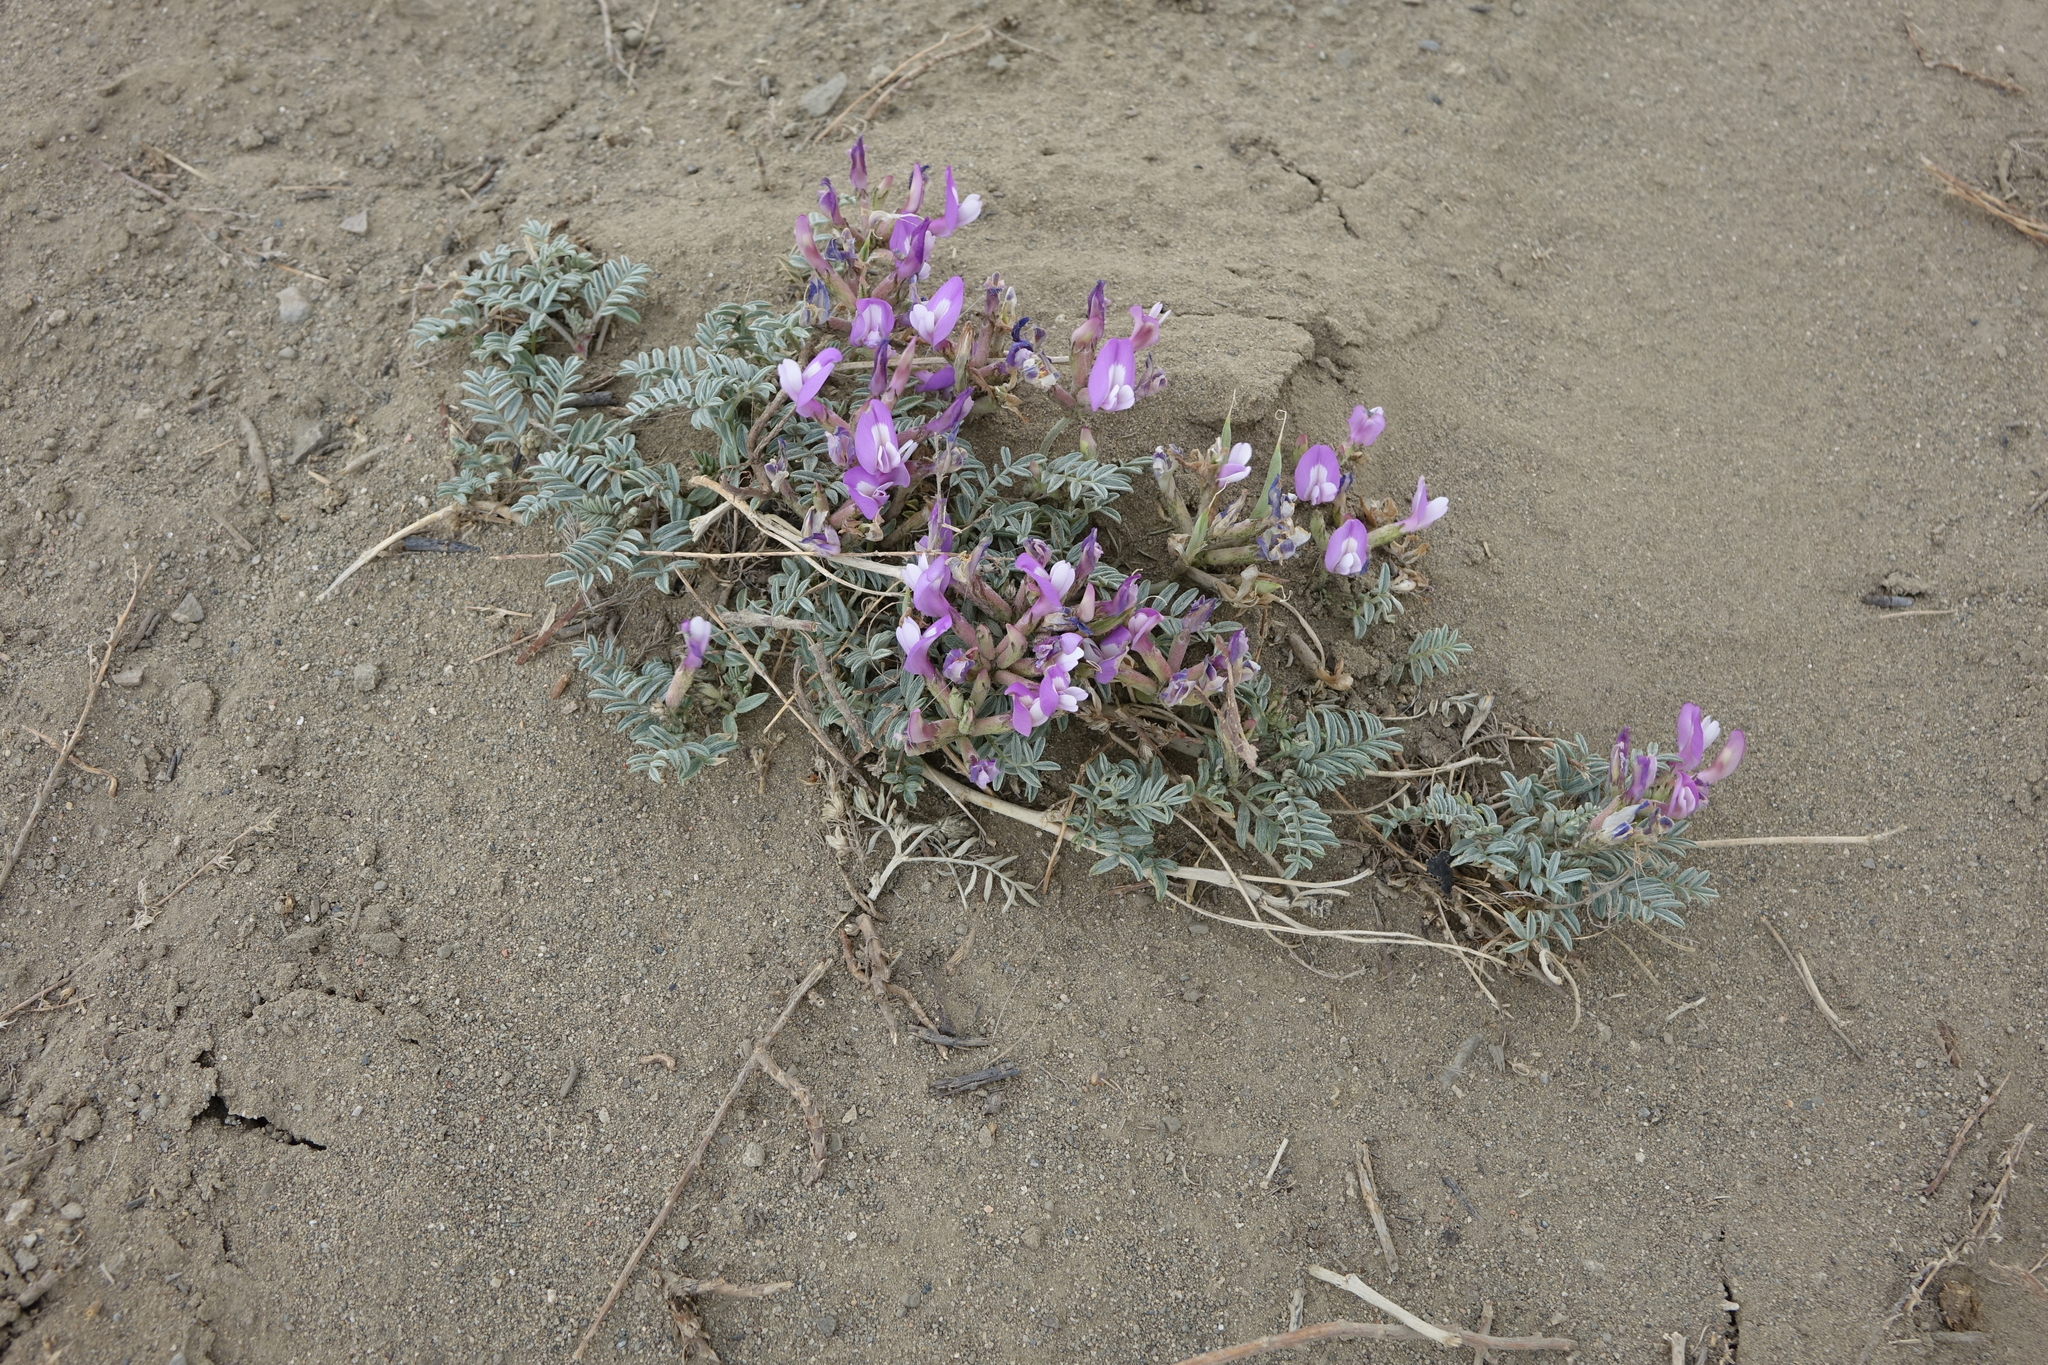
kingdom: Plantae
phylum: Tracheophyta
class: Magnoliopsida
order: Fabales
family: Fabaceae
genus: Astragalus
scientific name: Astragalus stenoceras
